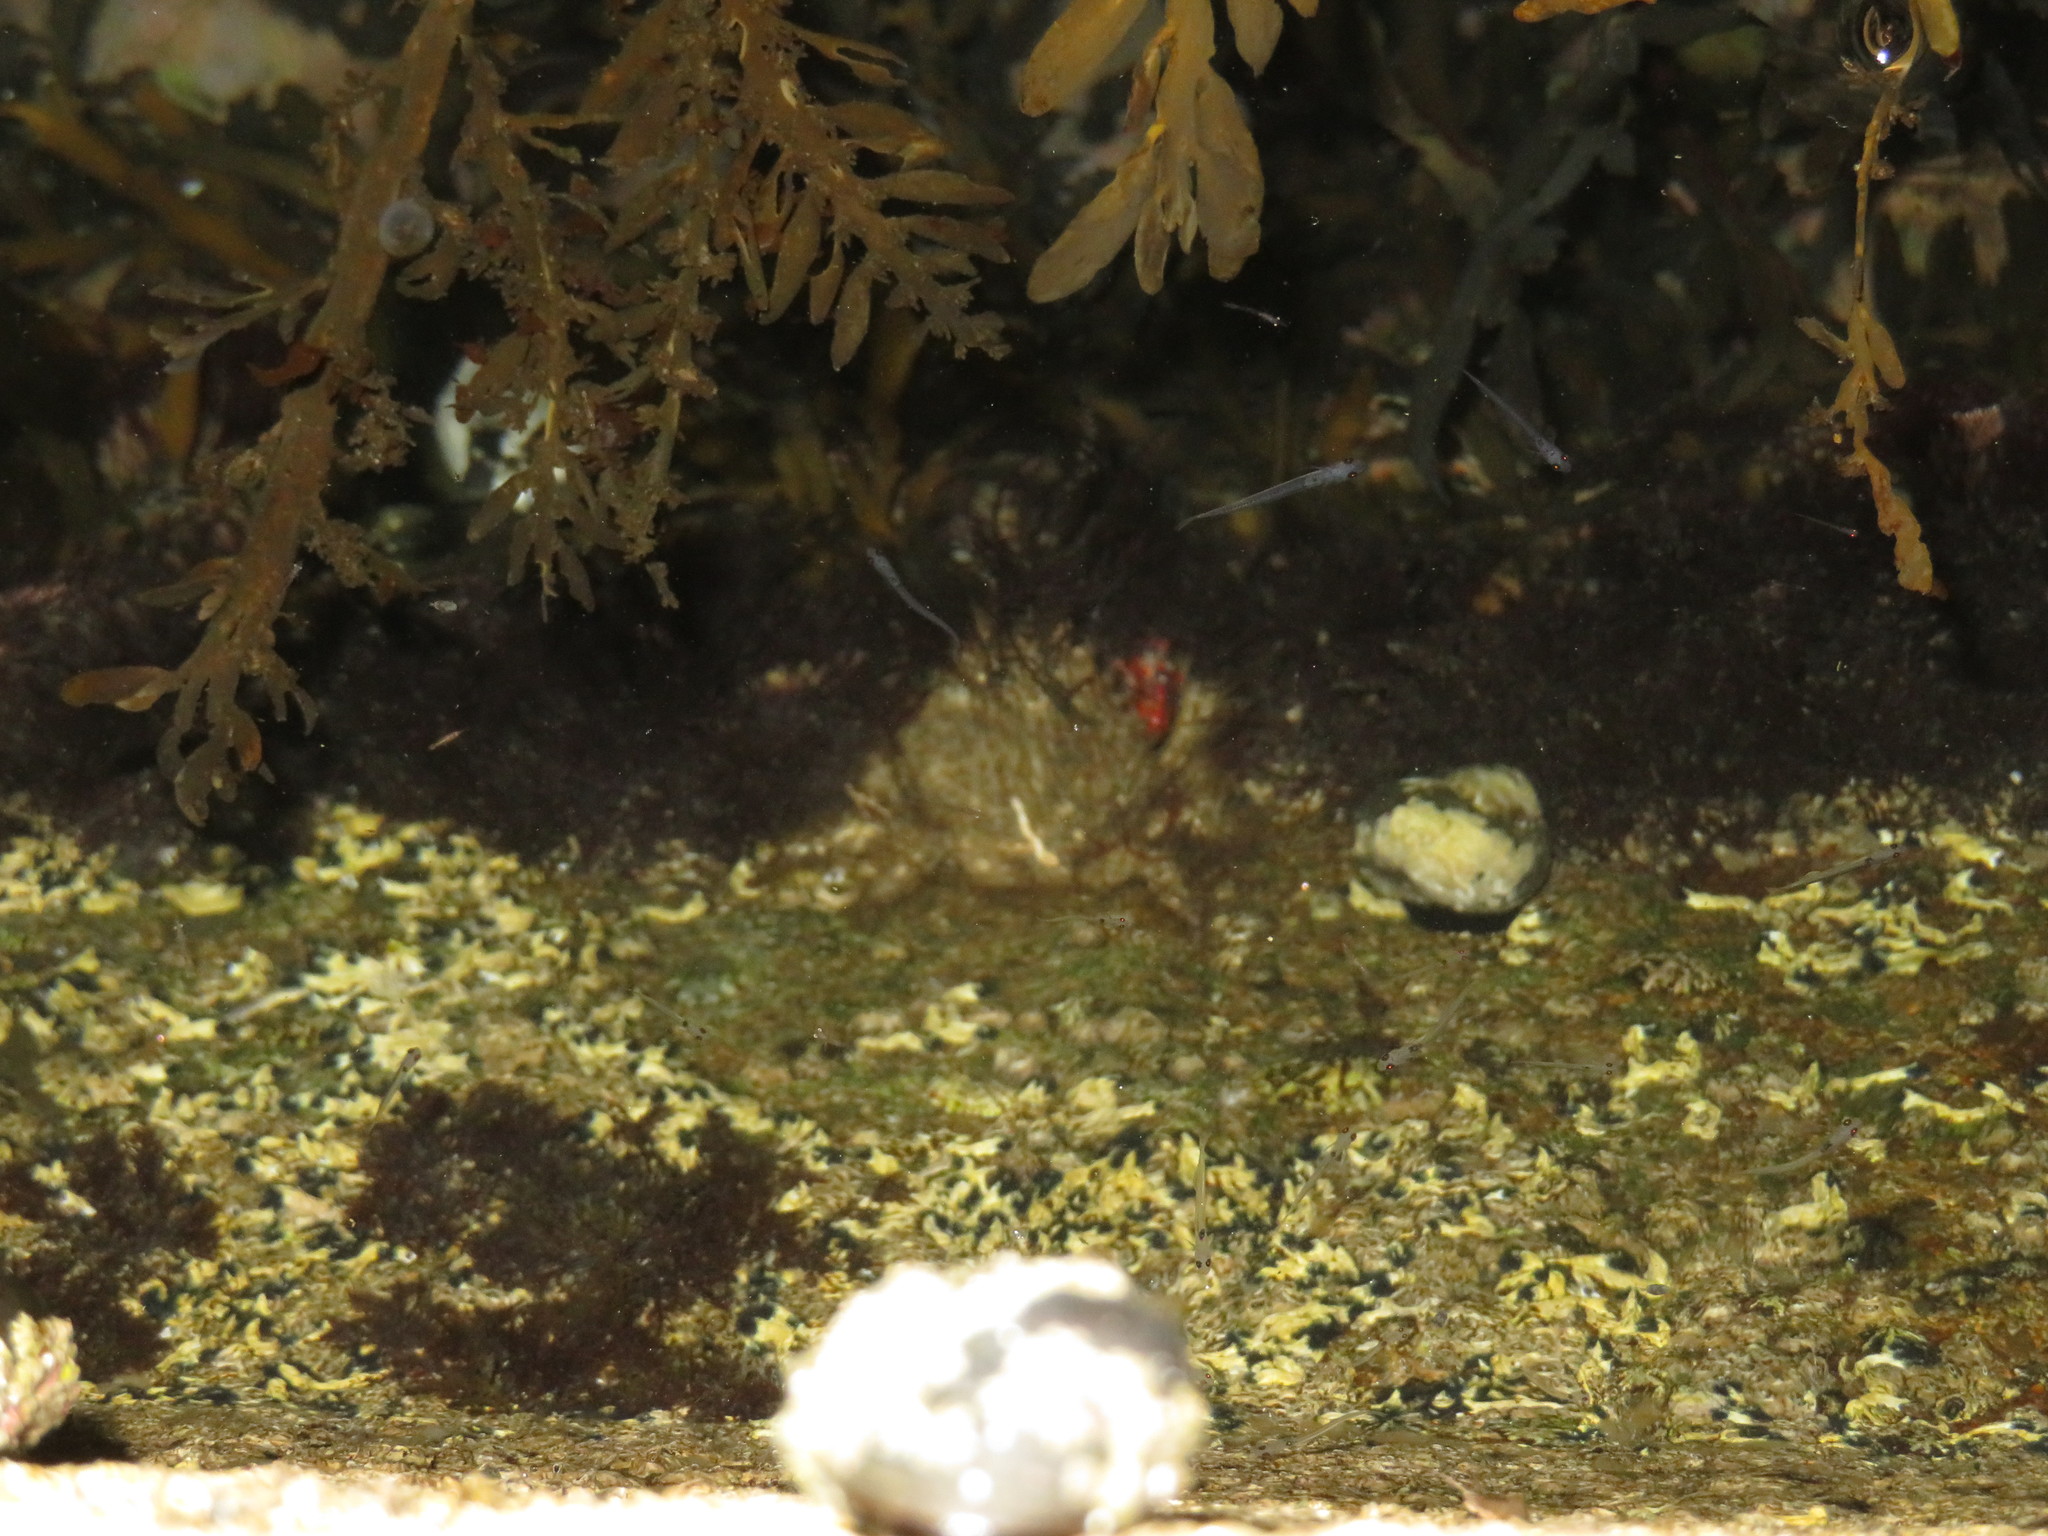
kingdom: Animalia
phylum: Arthropoda
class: Malacostraca
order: Decapoda
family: Majidae
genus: Notomithrax
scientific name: Notomithrax ursus
